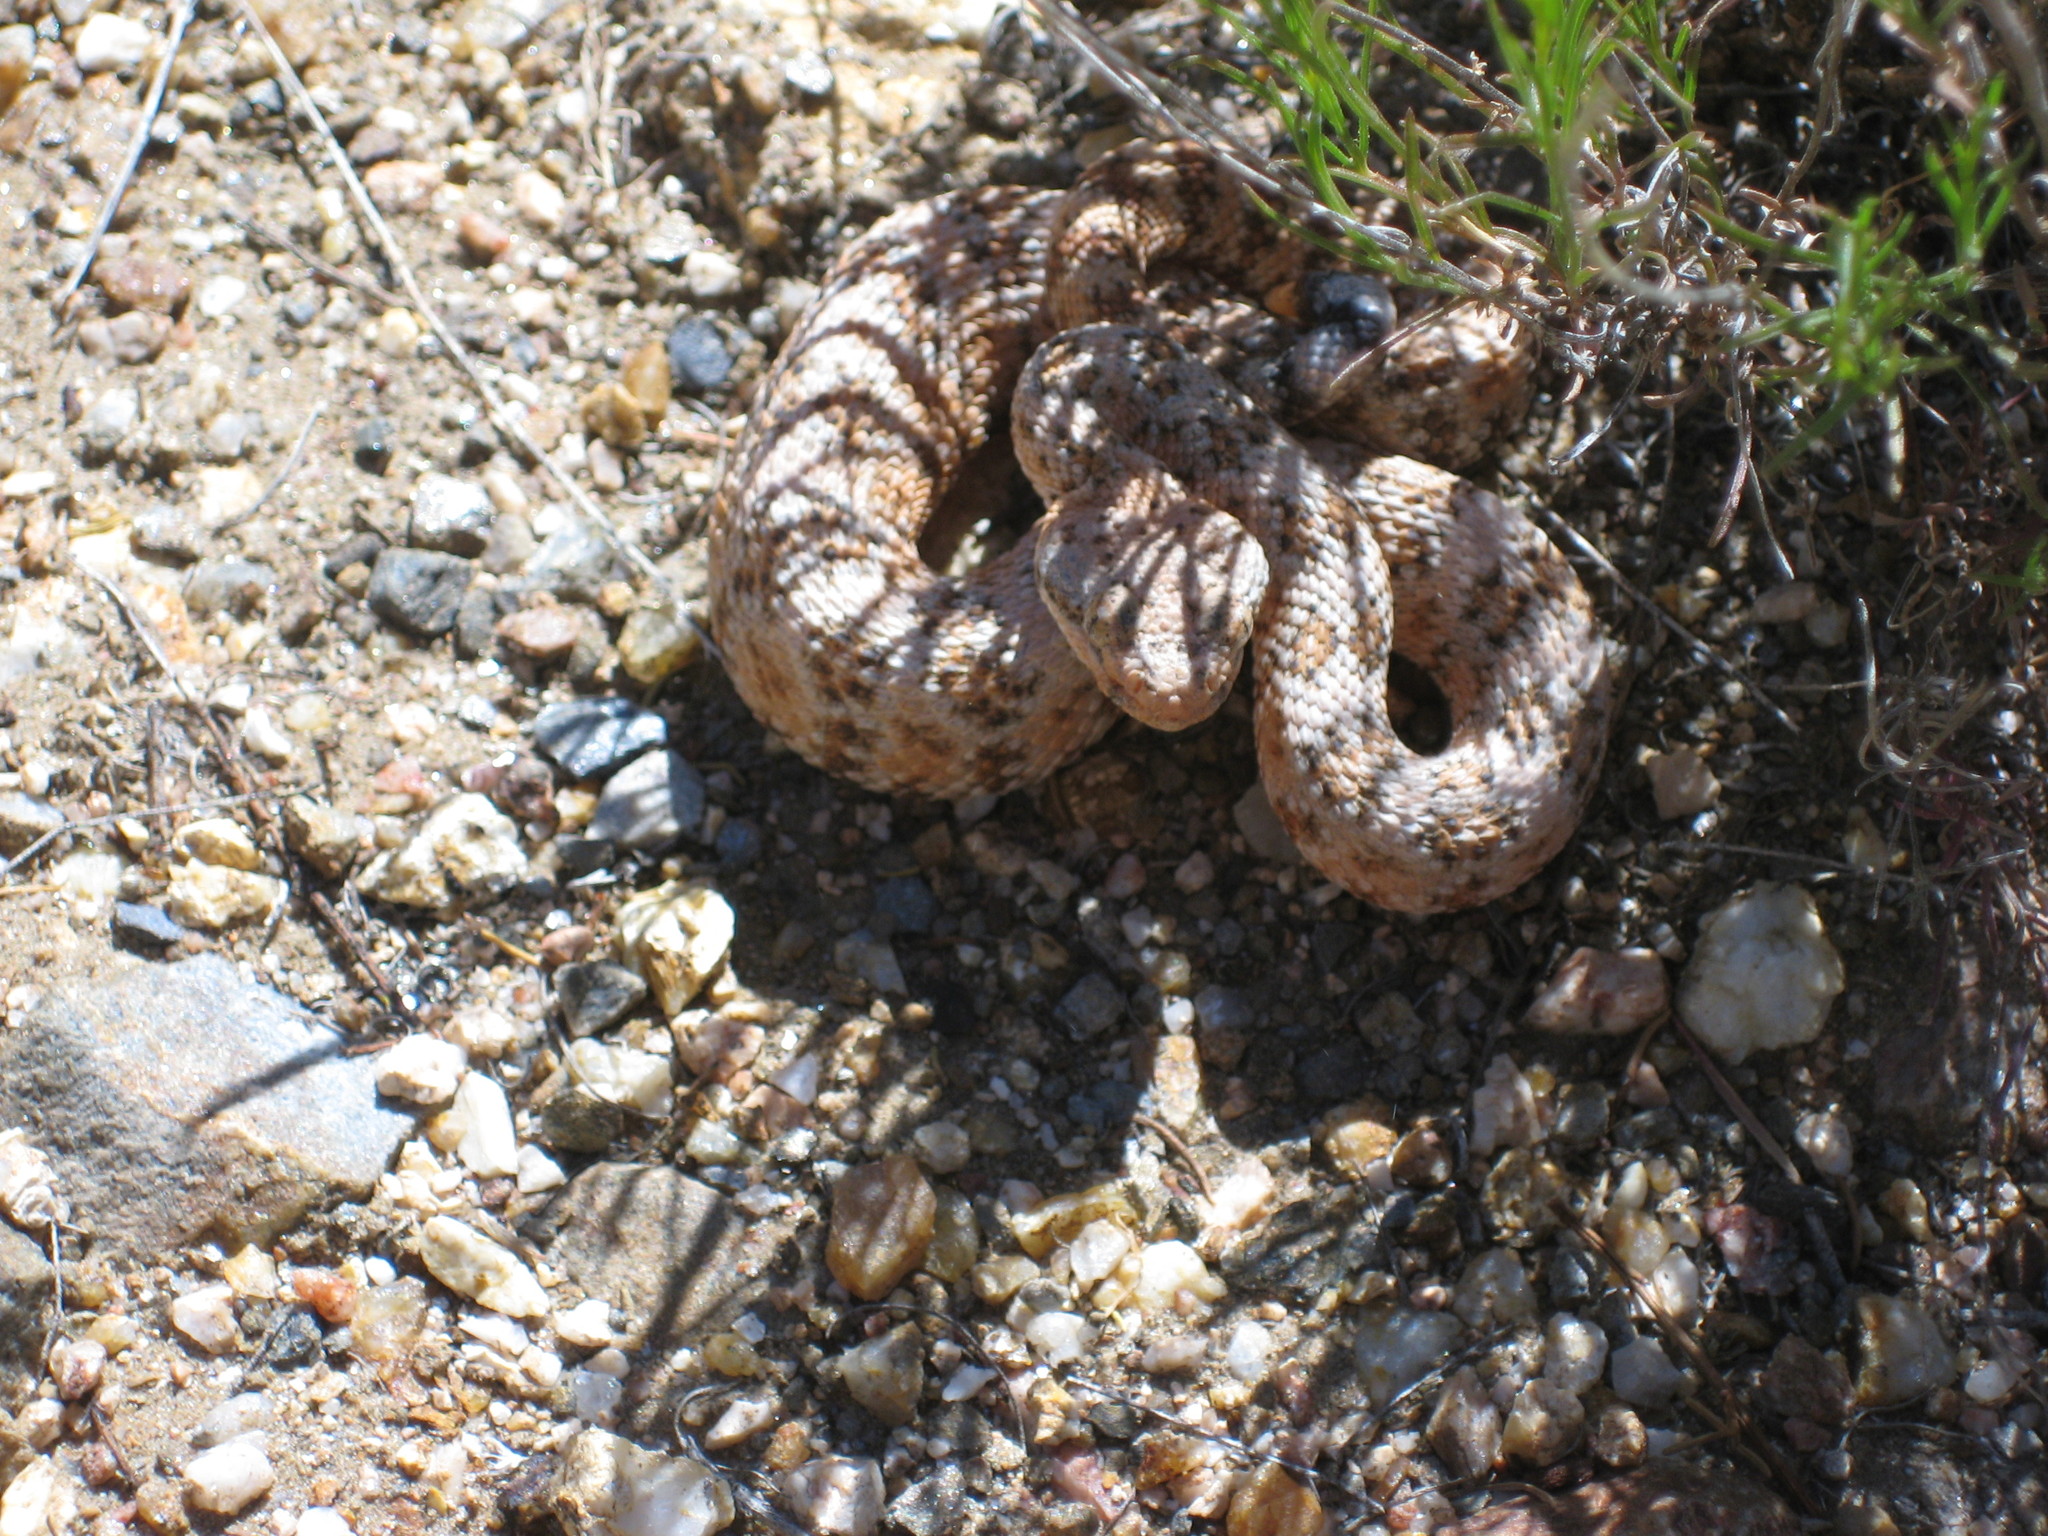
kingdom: Animalia
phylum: Chordata
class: Squamata
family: Viperidae
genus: Crotalus
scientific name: Crotalus pyrrhus
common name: Southwestern speckled rattlesnake
